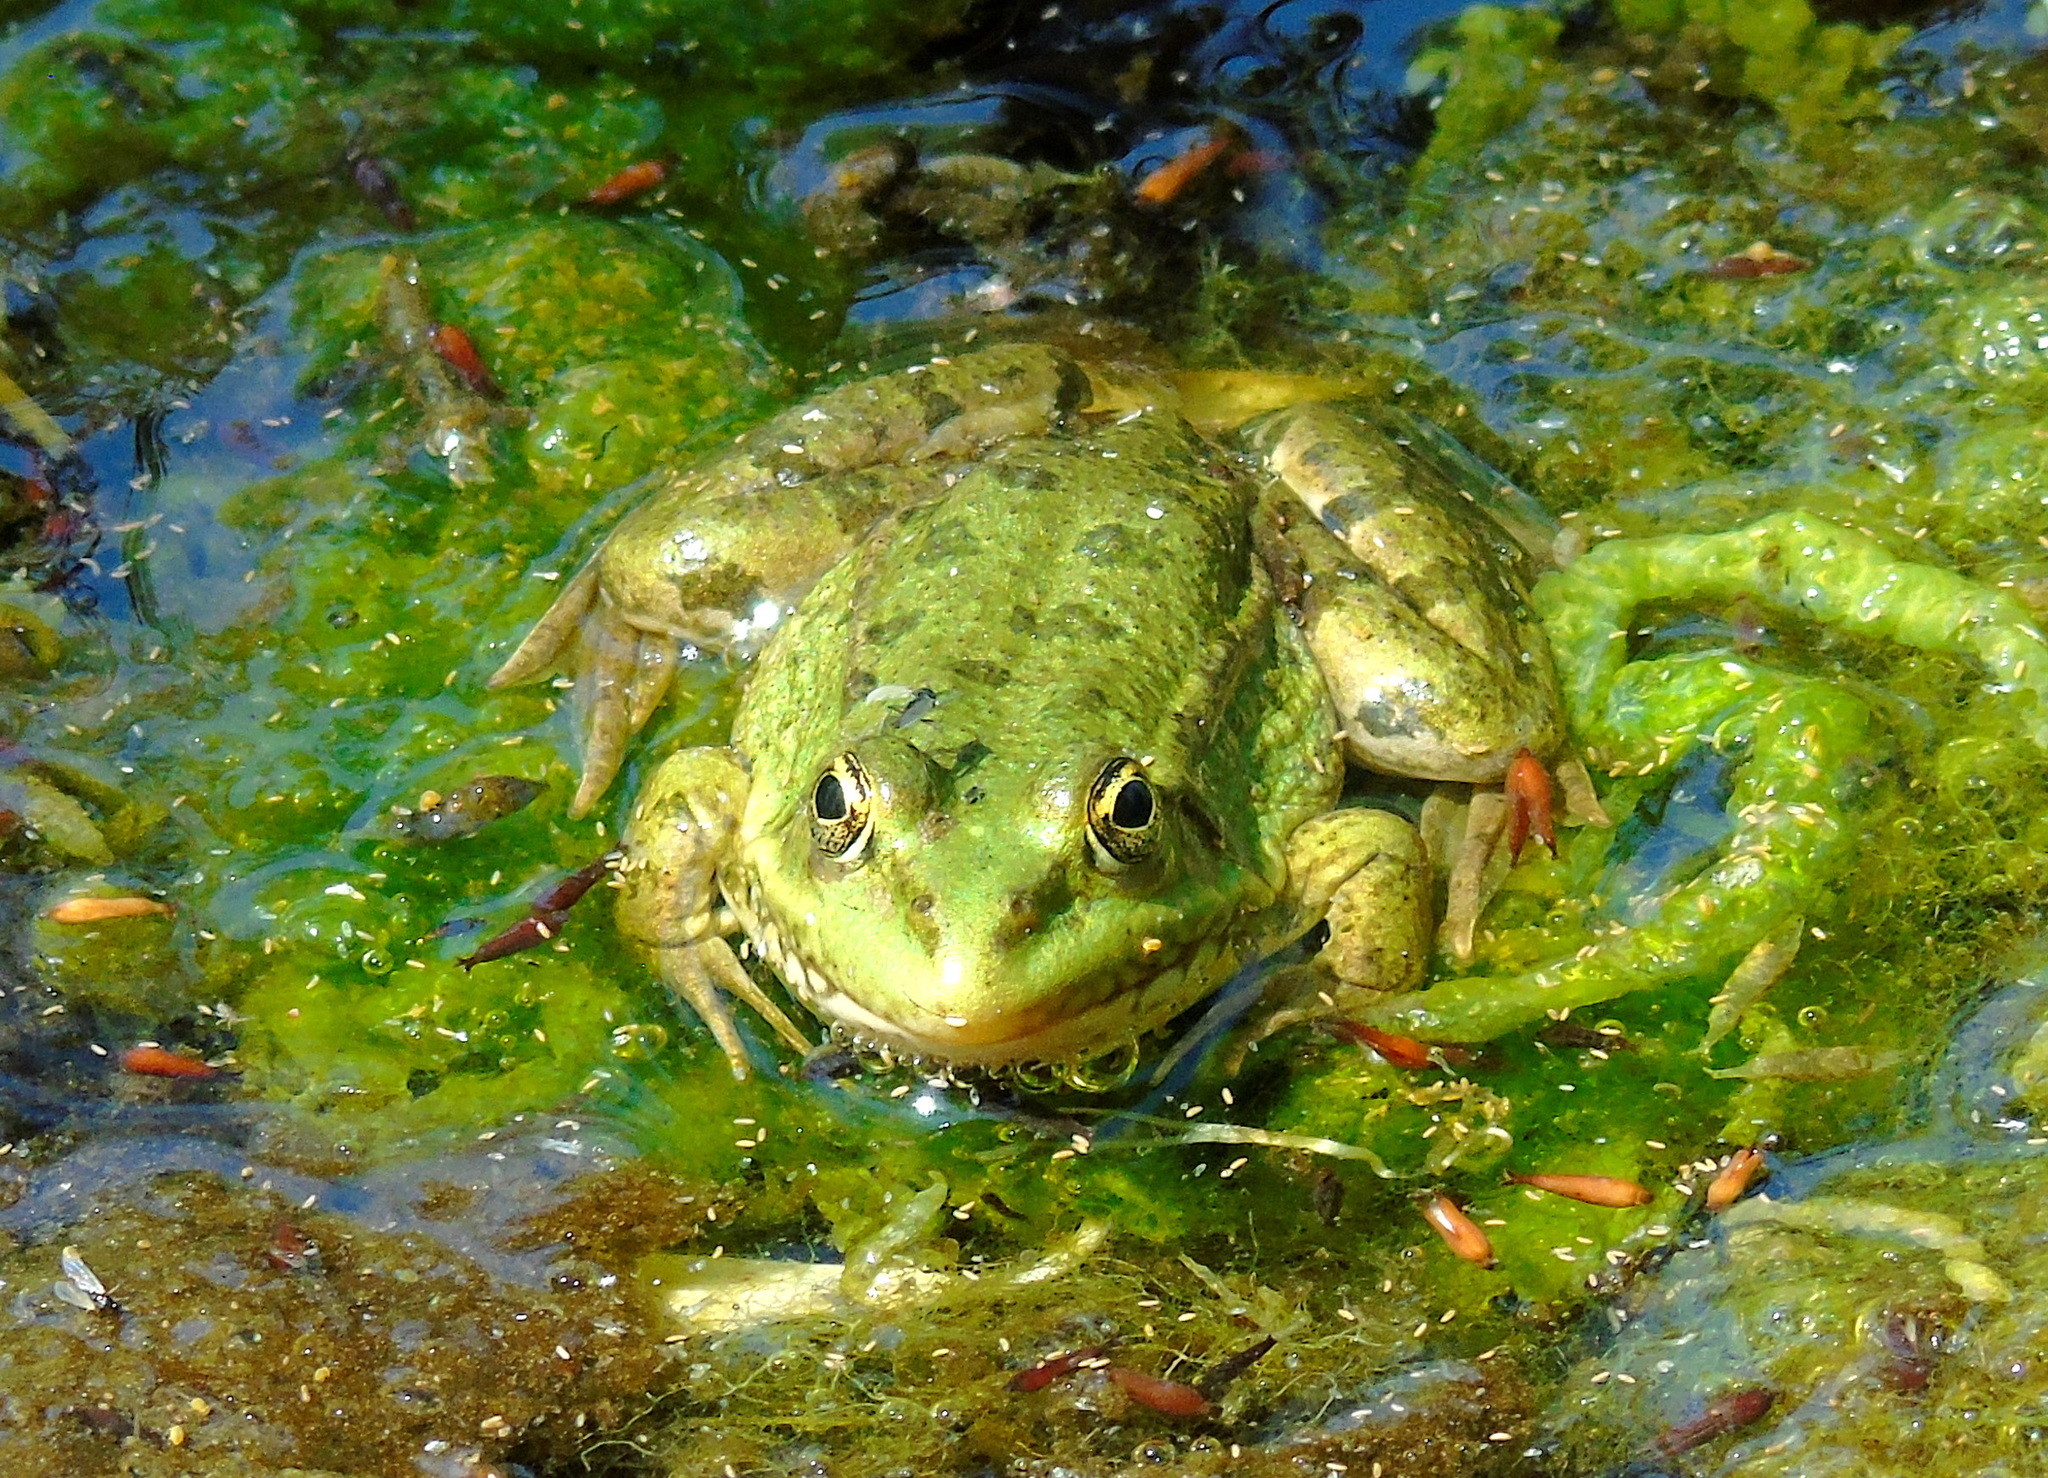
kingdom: Animalia
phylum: Chordata
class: Amphibia
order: Anura
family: Ranidae
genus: Pelophylax
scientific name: Pelophylax ridibundus
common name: Marsh frog
